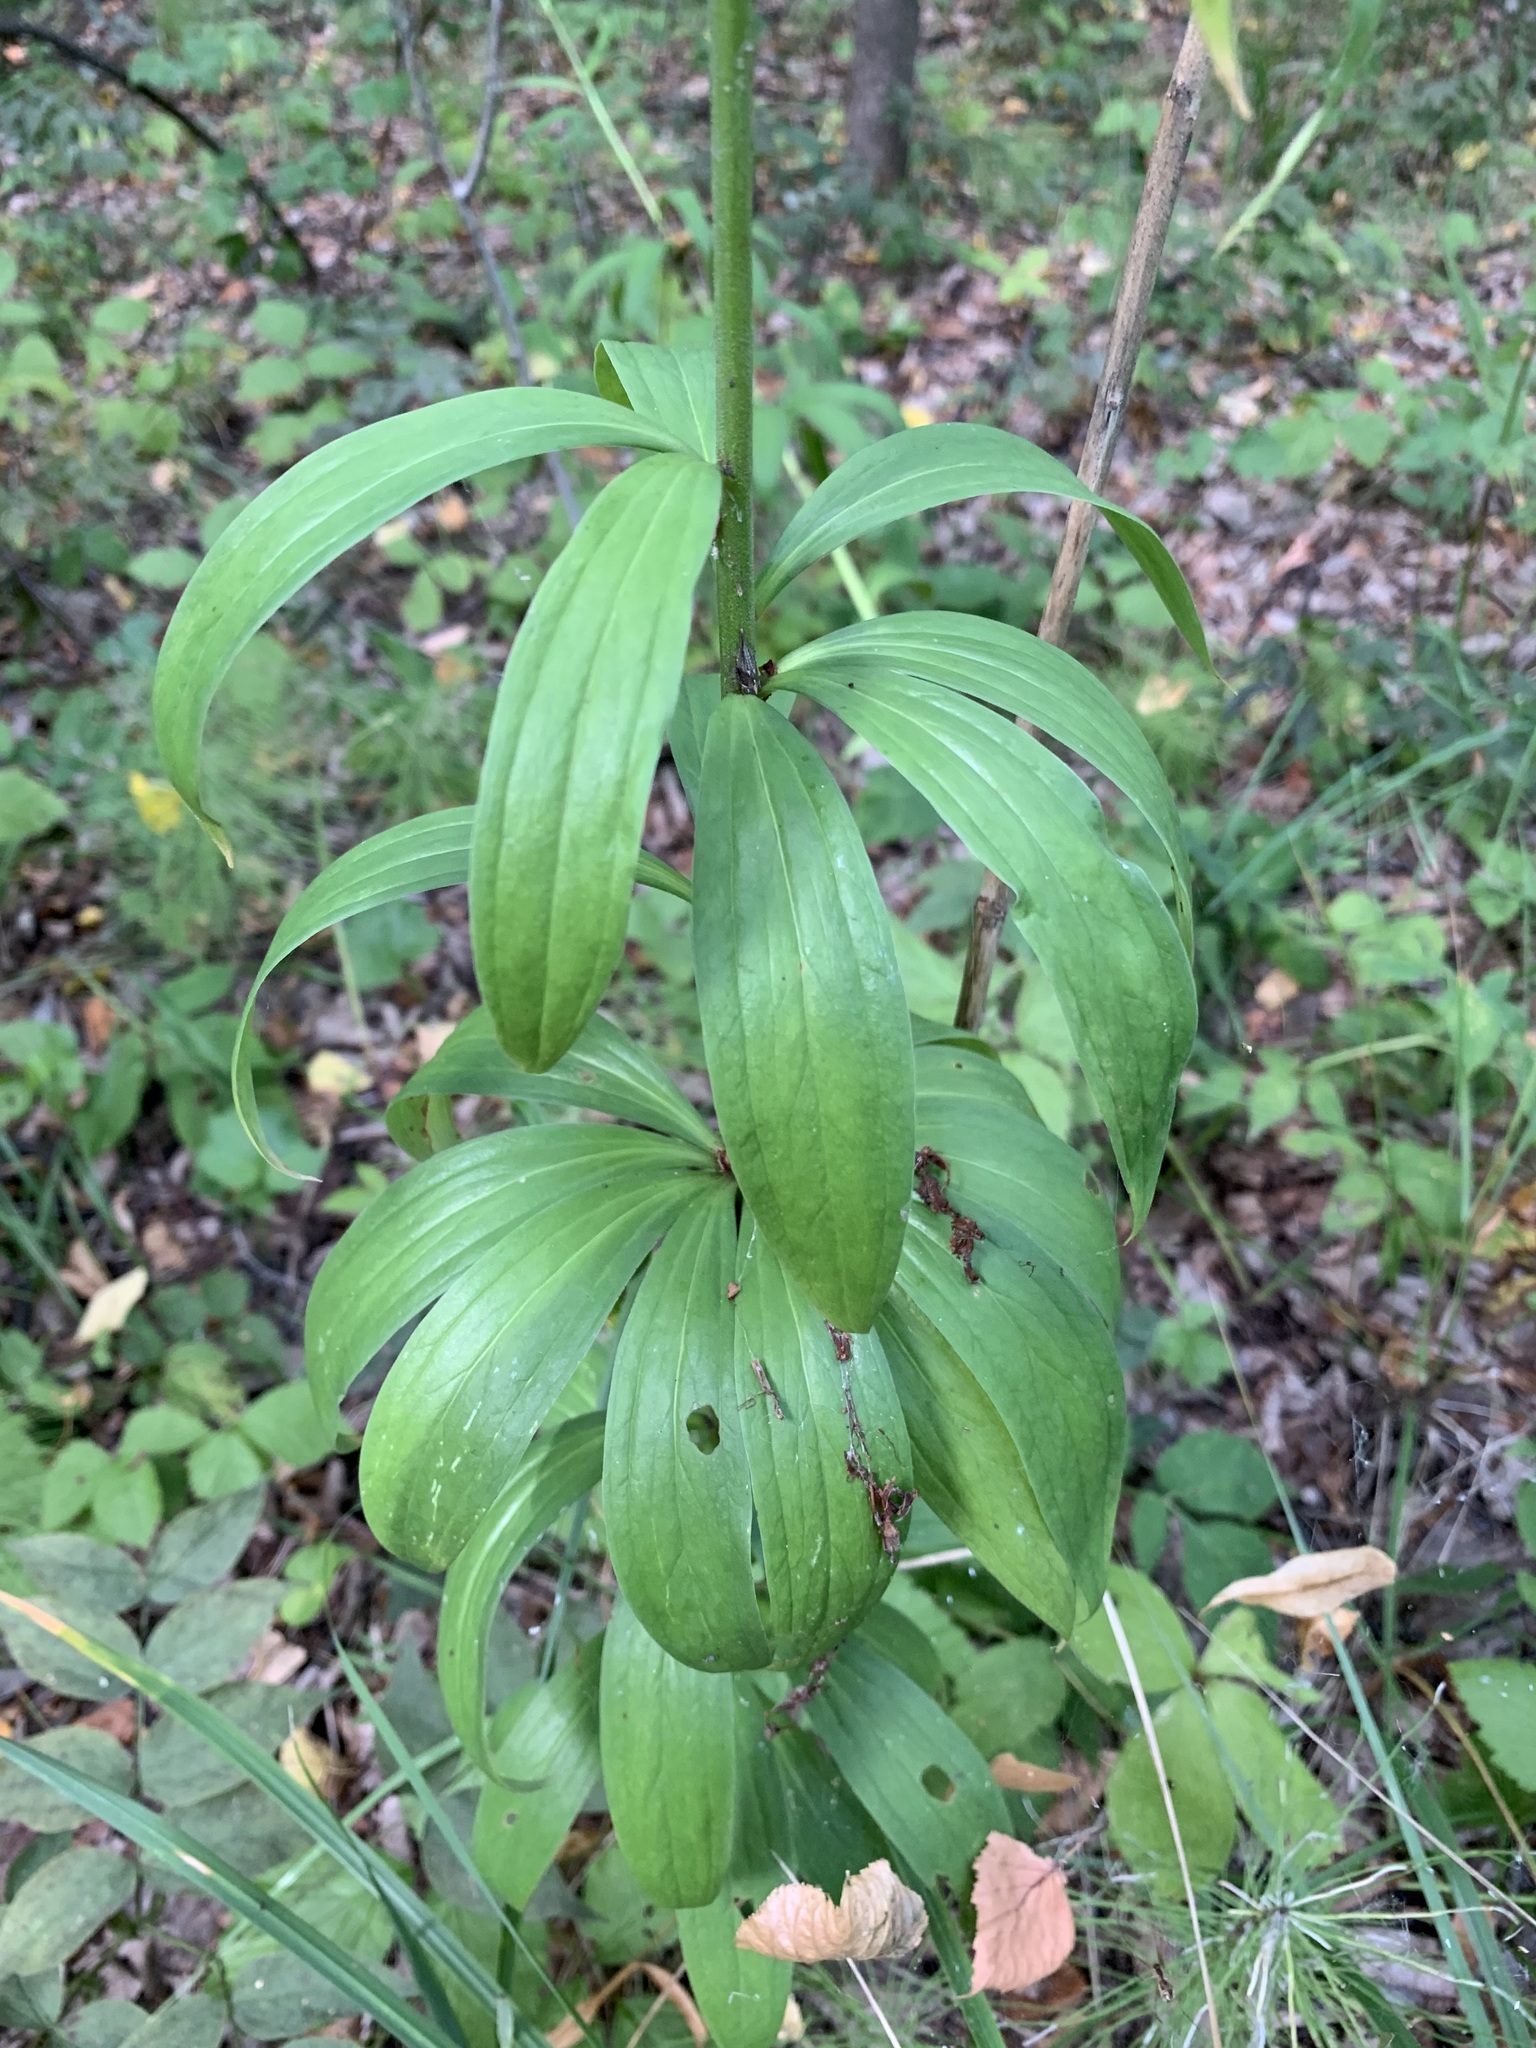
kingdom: Plantae
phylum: Tracheophyta
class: Liliopsida
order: Liliales
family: Liliaceae
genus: Lilium
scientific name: Lilium martagon
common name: Martagon lily
